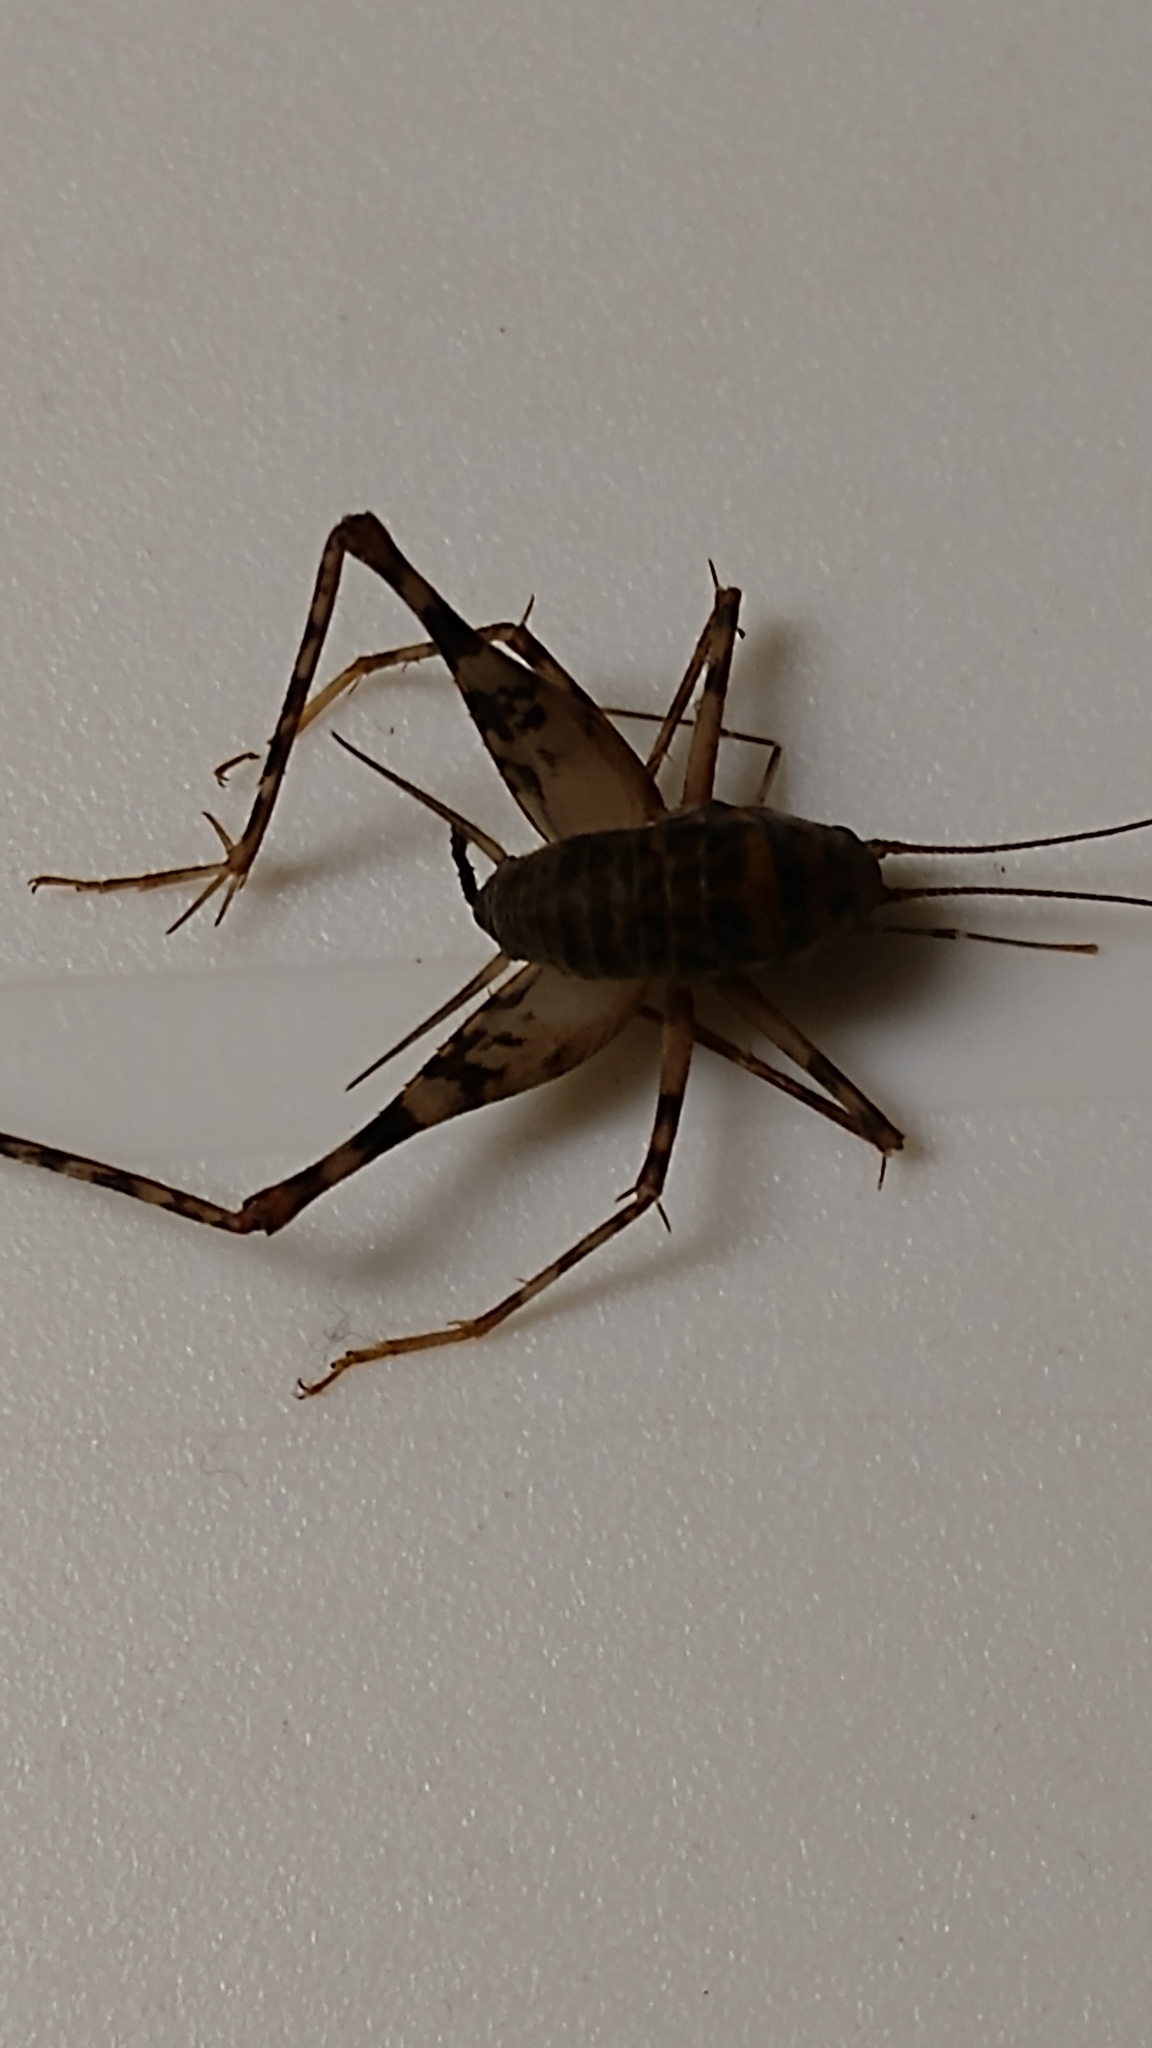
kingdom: Animalia
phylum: Arthropoda
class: Insecta
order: Orthoptera
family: Rhaphidophoridae
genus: Tachycines
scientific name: Tachycines asynamorus
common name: Greenhouse camel cricket
